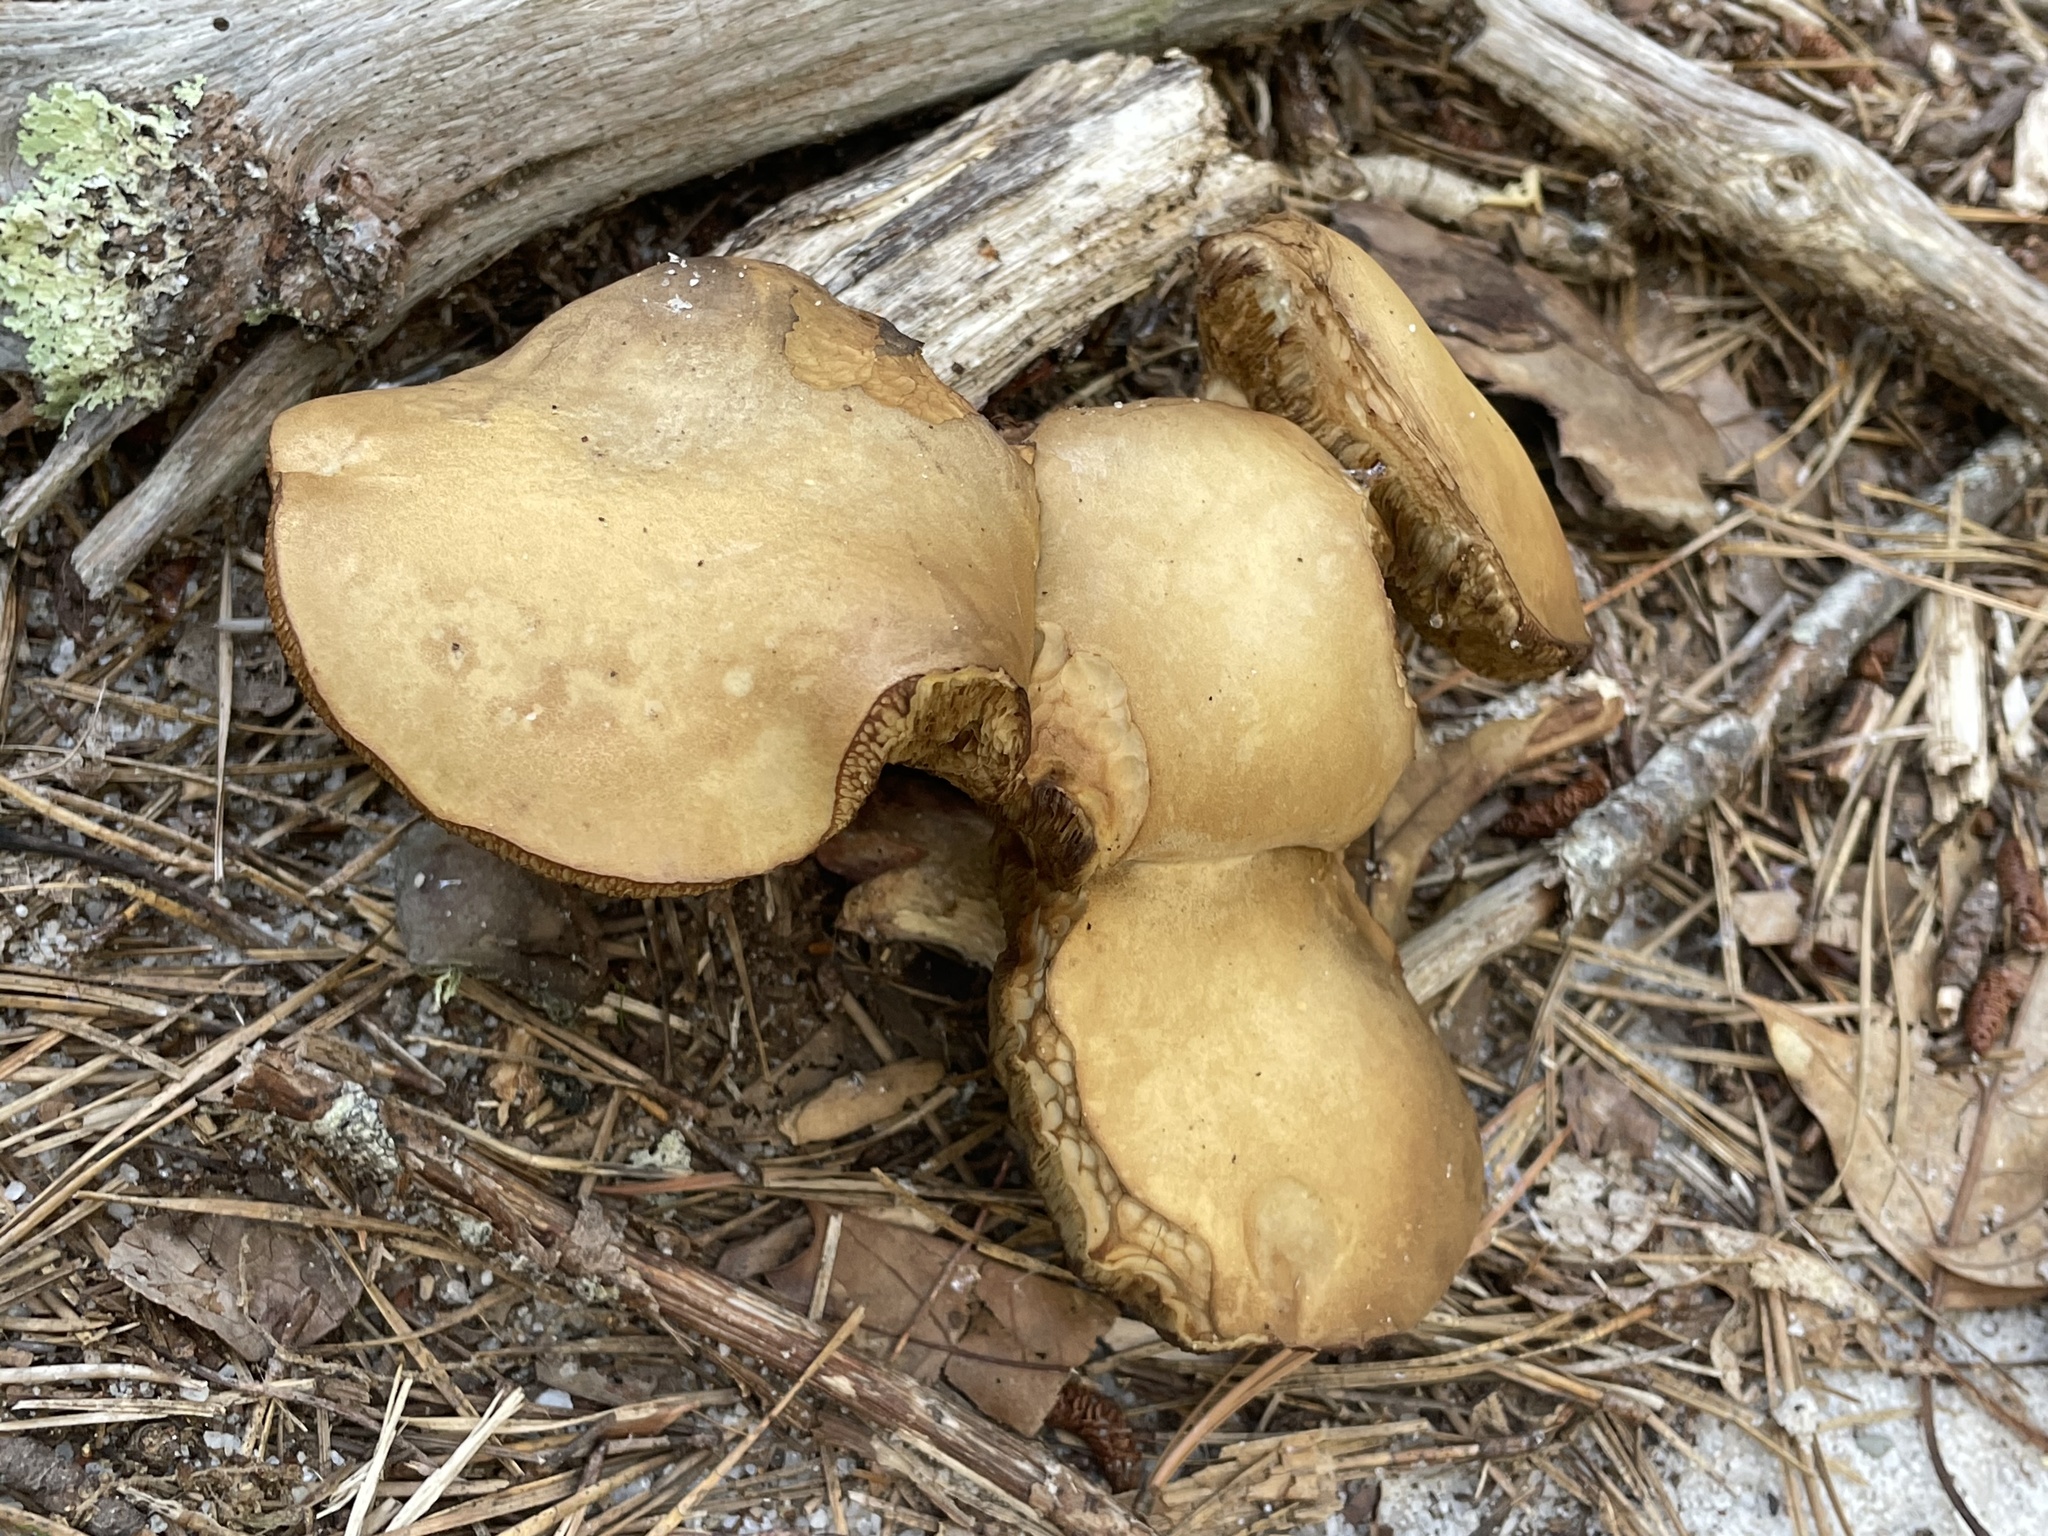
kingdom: Fungi
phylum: Basidiomycota
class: Agaricomycetes
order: Boletales
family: Boletaceae
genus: Retiboletus
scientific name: Retiboletus vinaceipes
